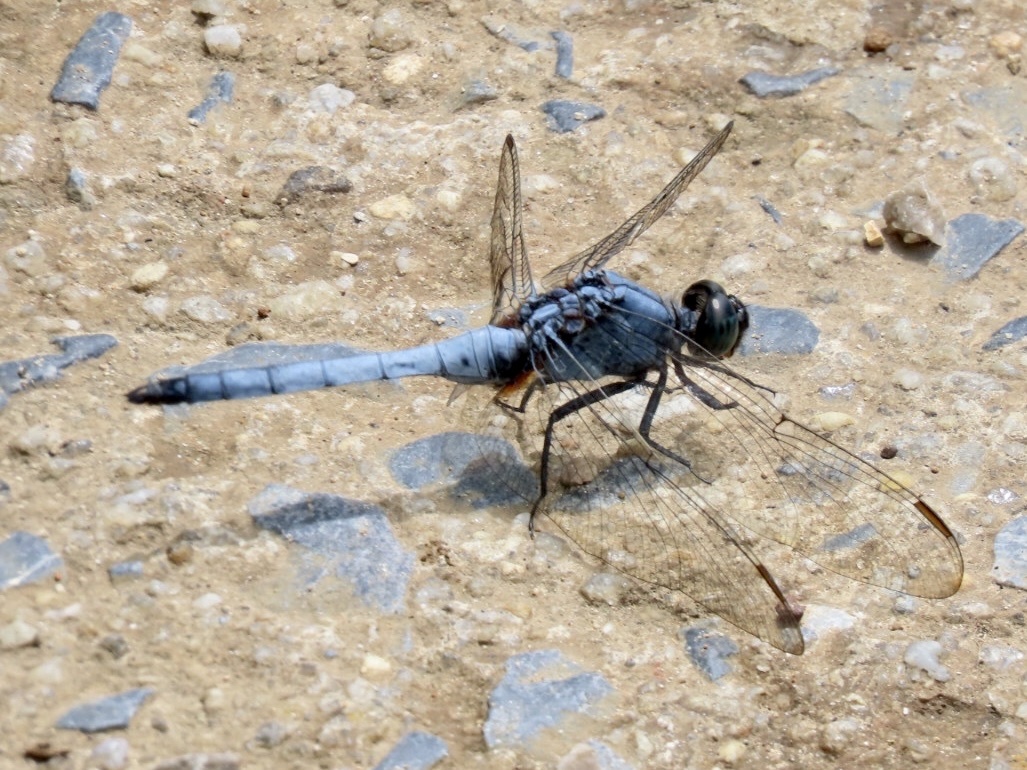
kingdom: Animalia
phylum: Arthropoda
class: Insecta
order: Odonata
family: Libellulidae
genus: Orthetrum
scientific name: Orthetrum glaucum
